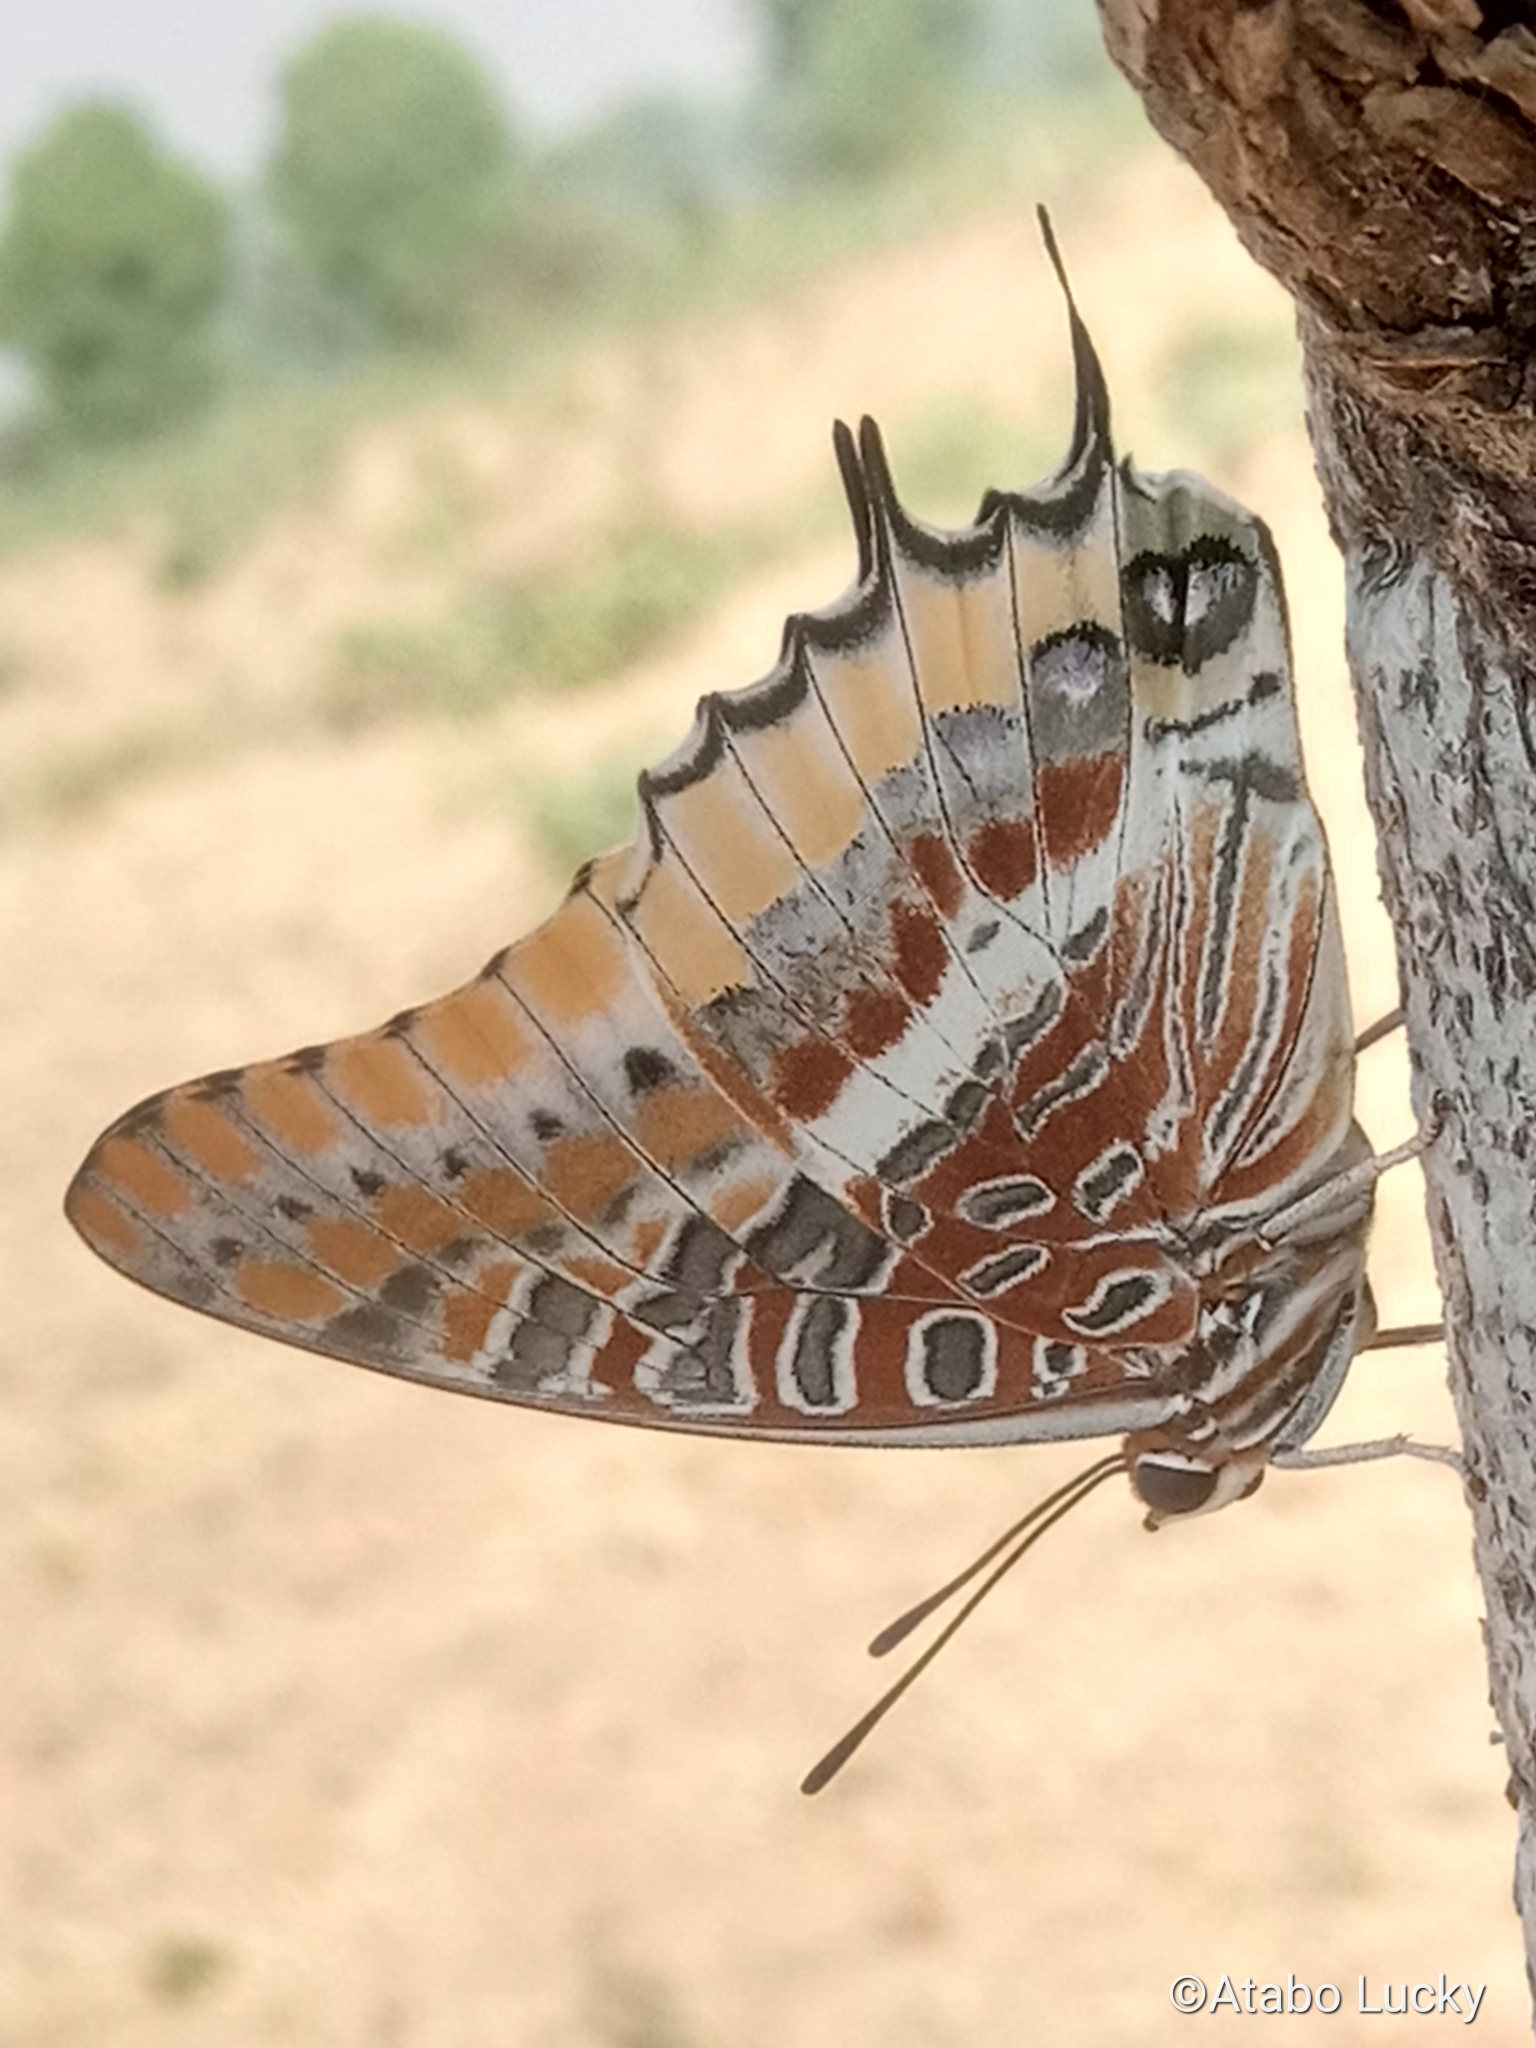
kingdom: Animalia
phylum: Arthropoda
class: Insecta
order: Lepidoptera
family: Nymphalidae
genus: Charaxes
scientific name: Charaxes jasius
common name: Two tailed pasha
